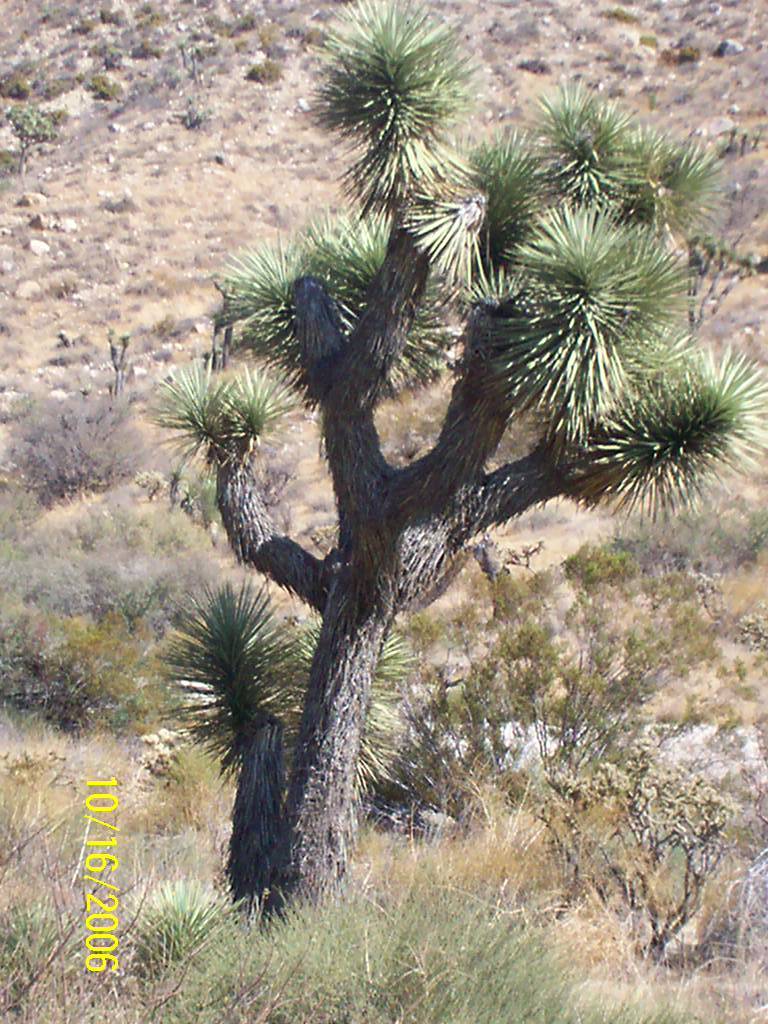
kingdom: Plantae
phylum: Tracheophyta
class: Liliopsida
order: Asparagales
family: Asparagaceae
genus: Yucca
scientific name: Yucca brevifolia
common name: Joshua tree
